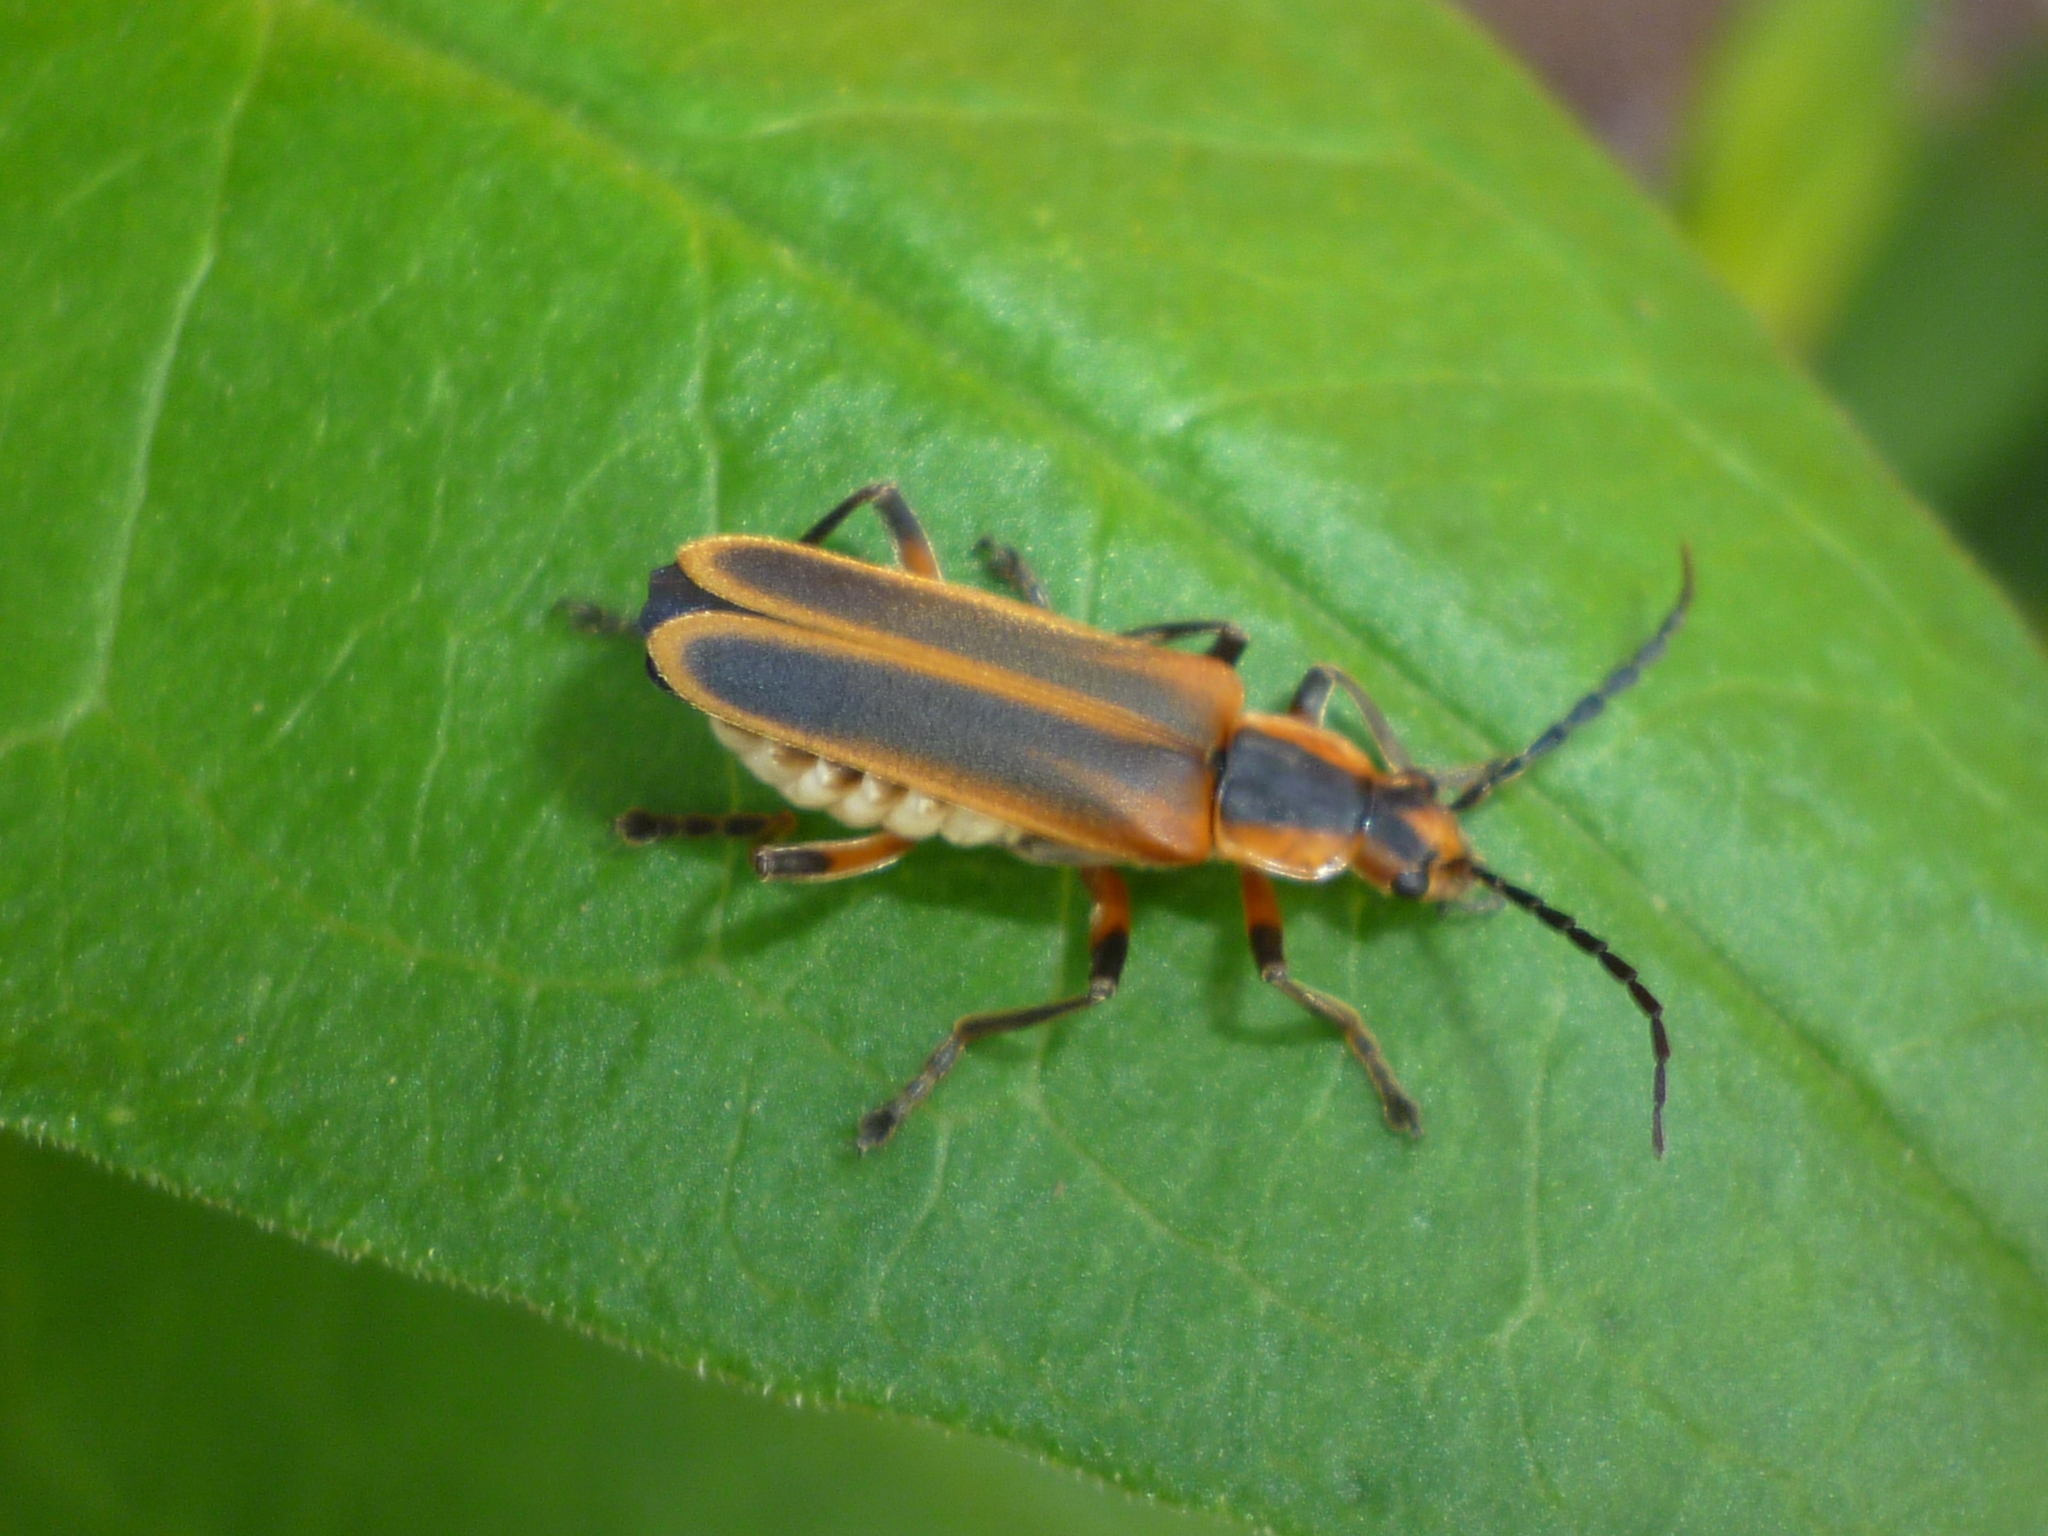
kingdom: Animalia
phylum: Arthropoda
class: Insecta
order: Coleoptera
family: Cantharidae
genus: Chauliognathus
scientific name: Chauliognathus marginatus
